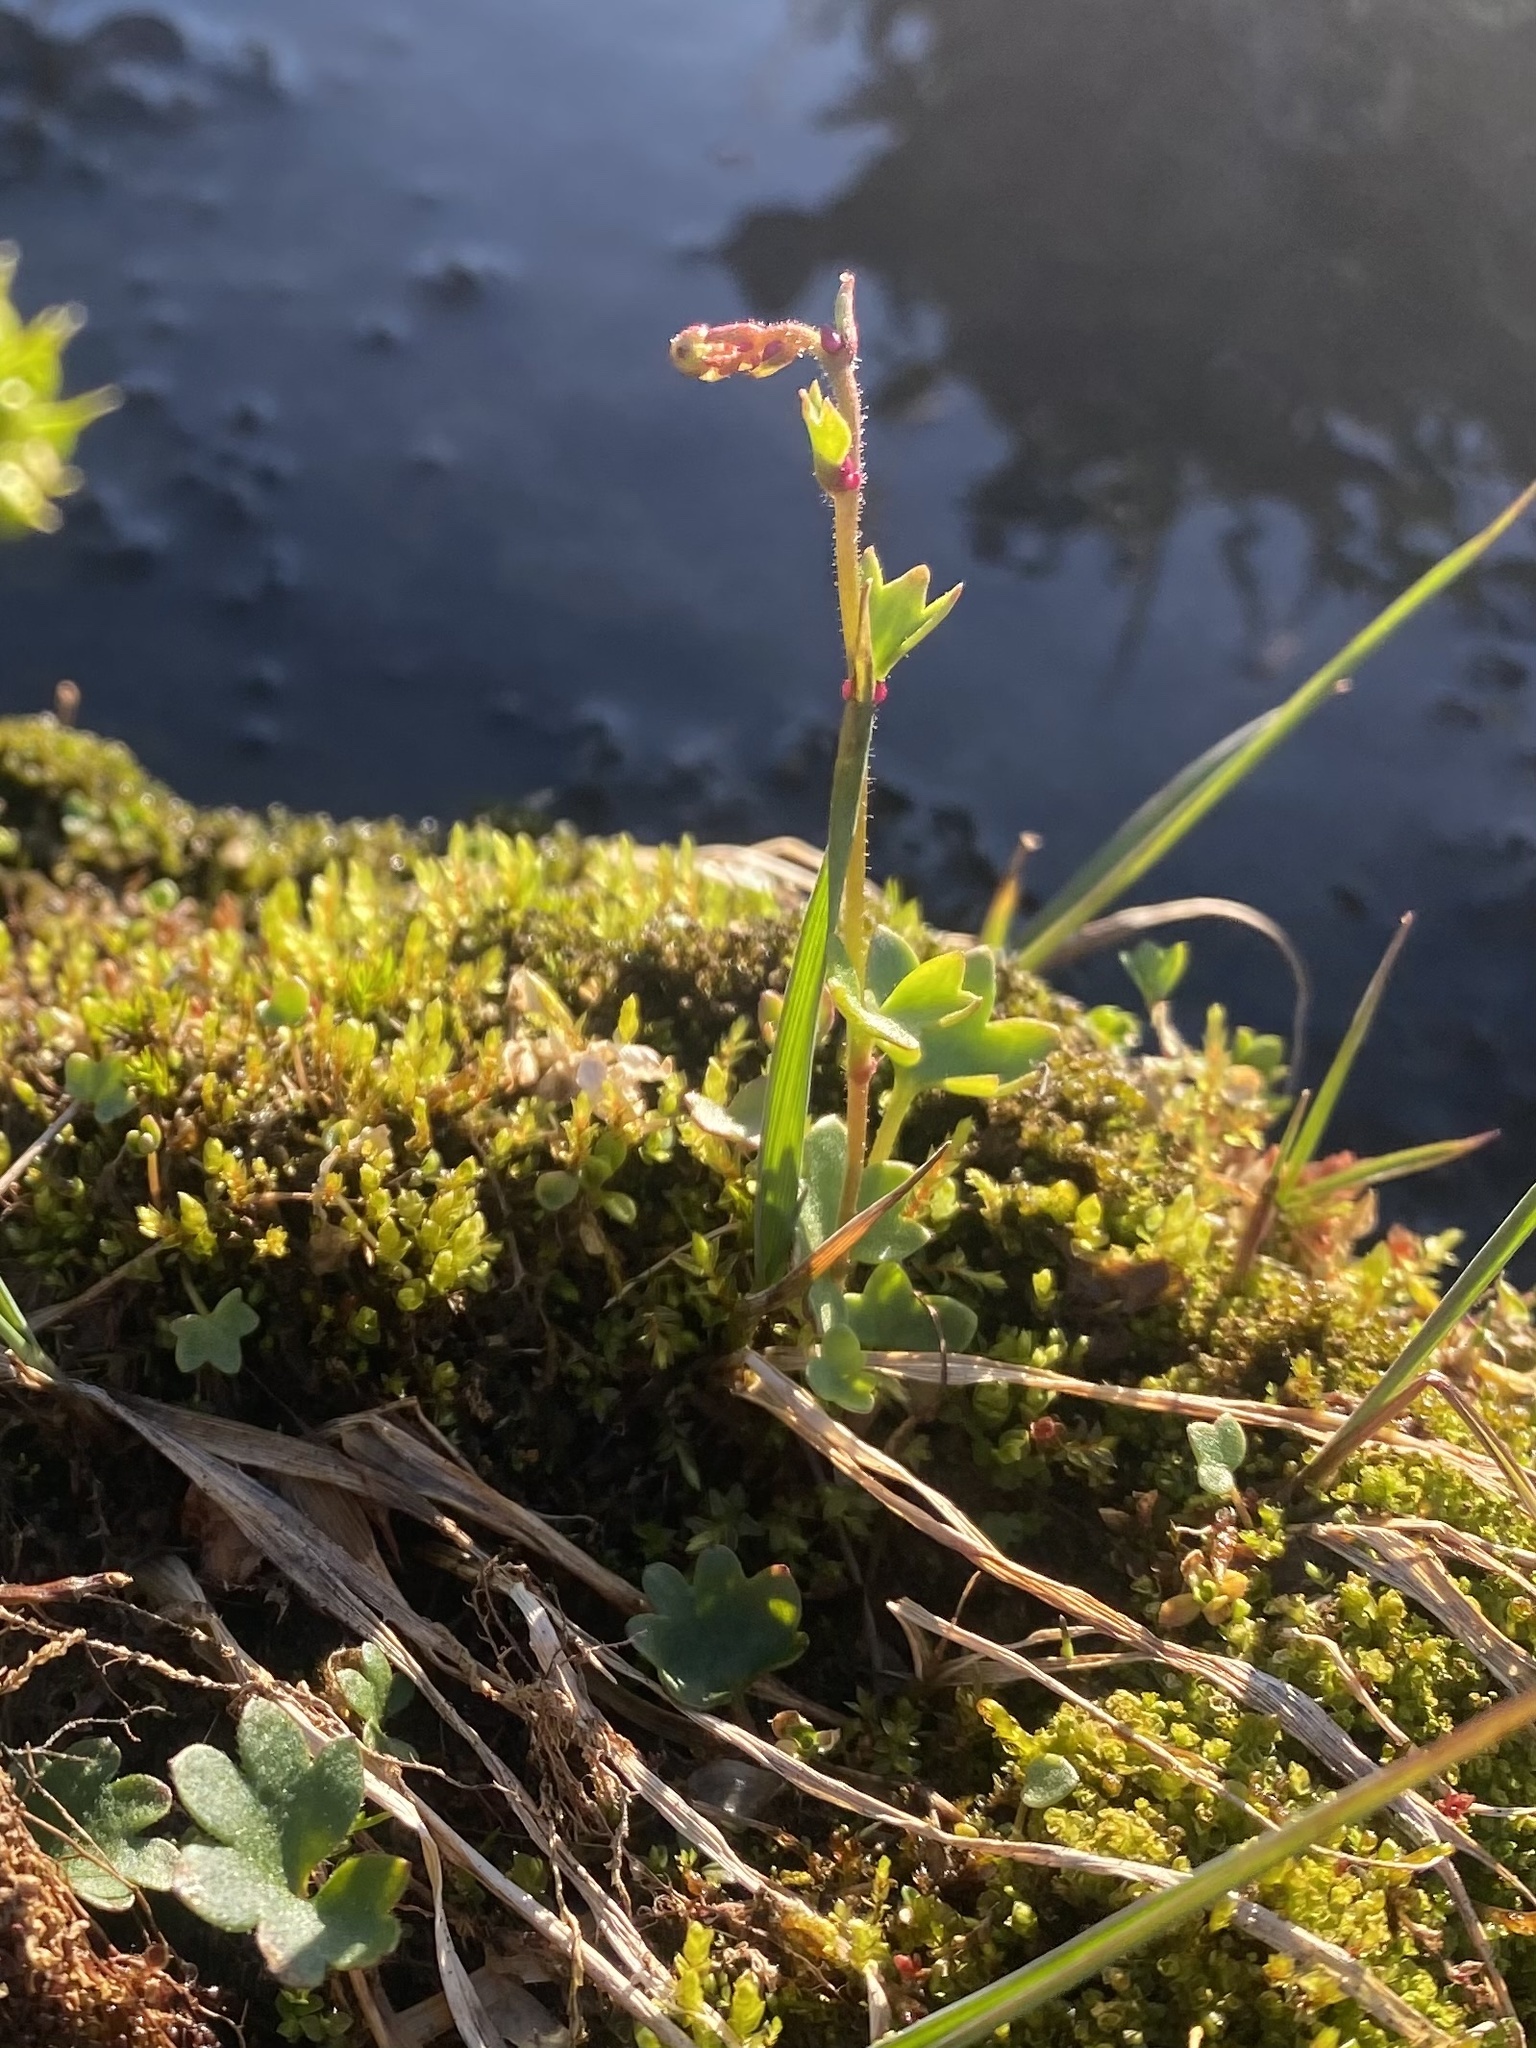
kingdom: Plantae
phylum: Tracheophyta
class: Magnoliopsida
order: Saxifragales
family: Saxifragaceae
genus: Saxifraga
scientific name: Saxifraga cernua
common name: Drooping saxifrage
